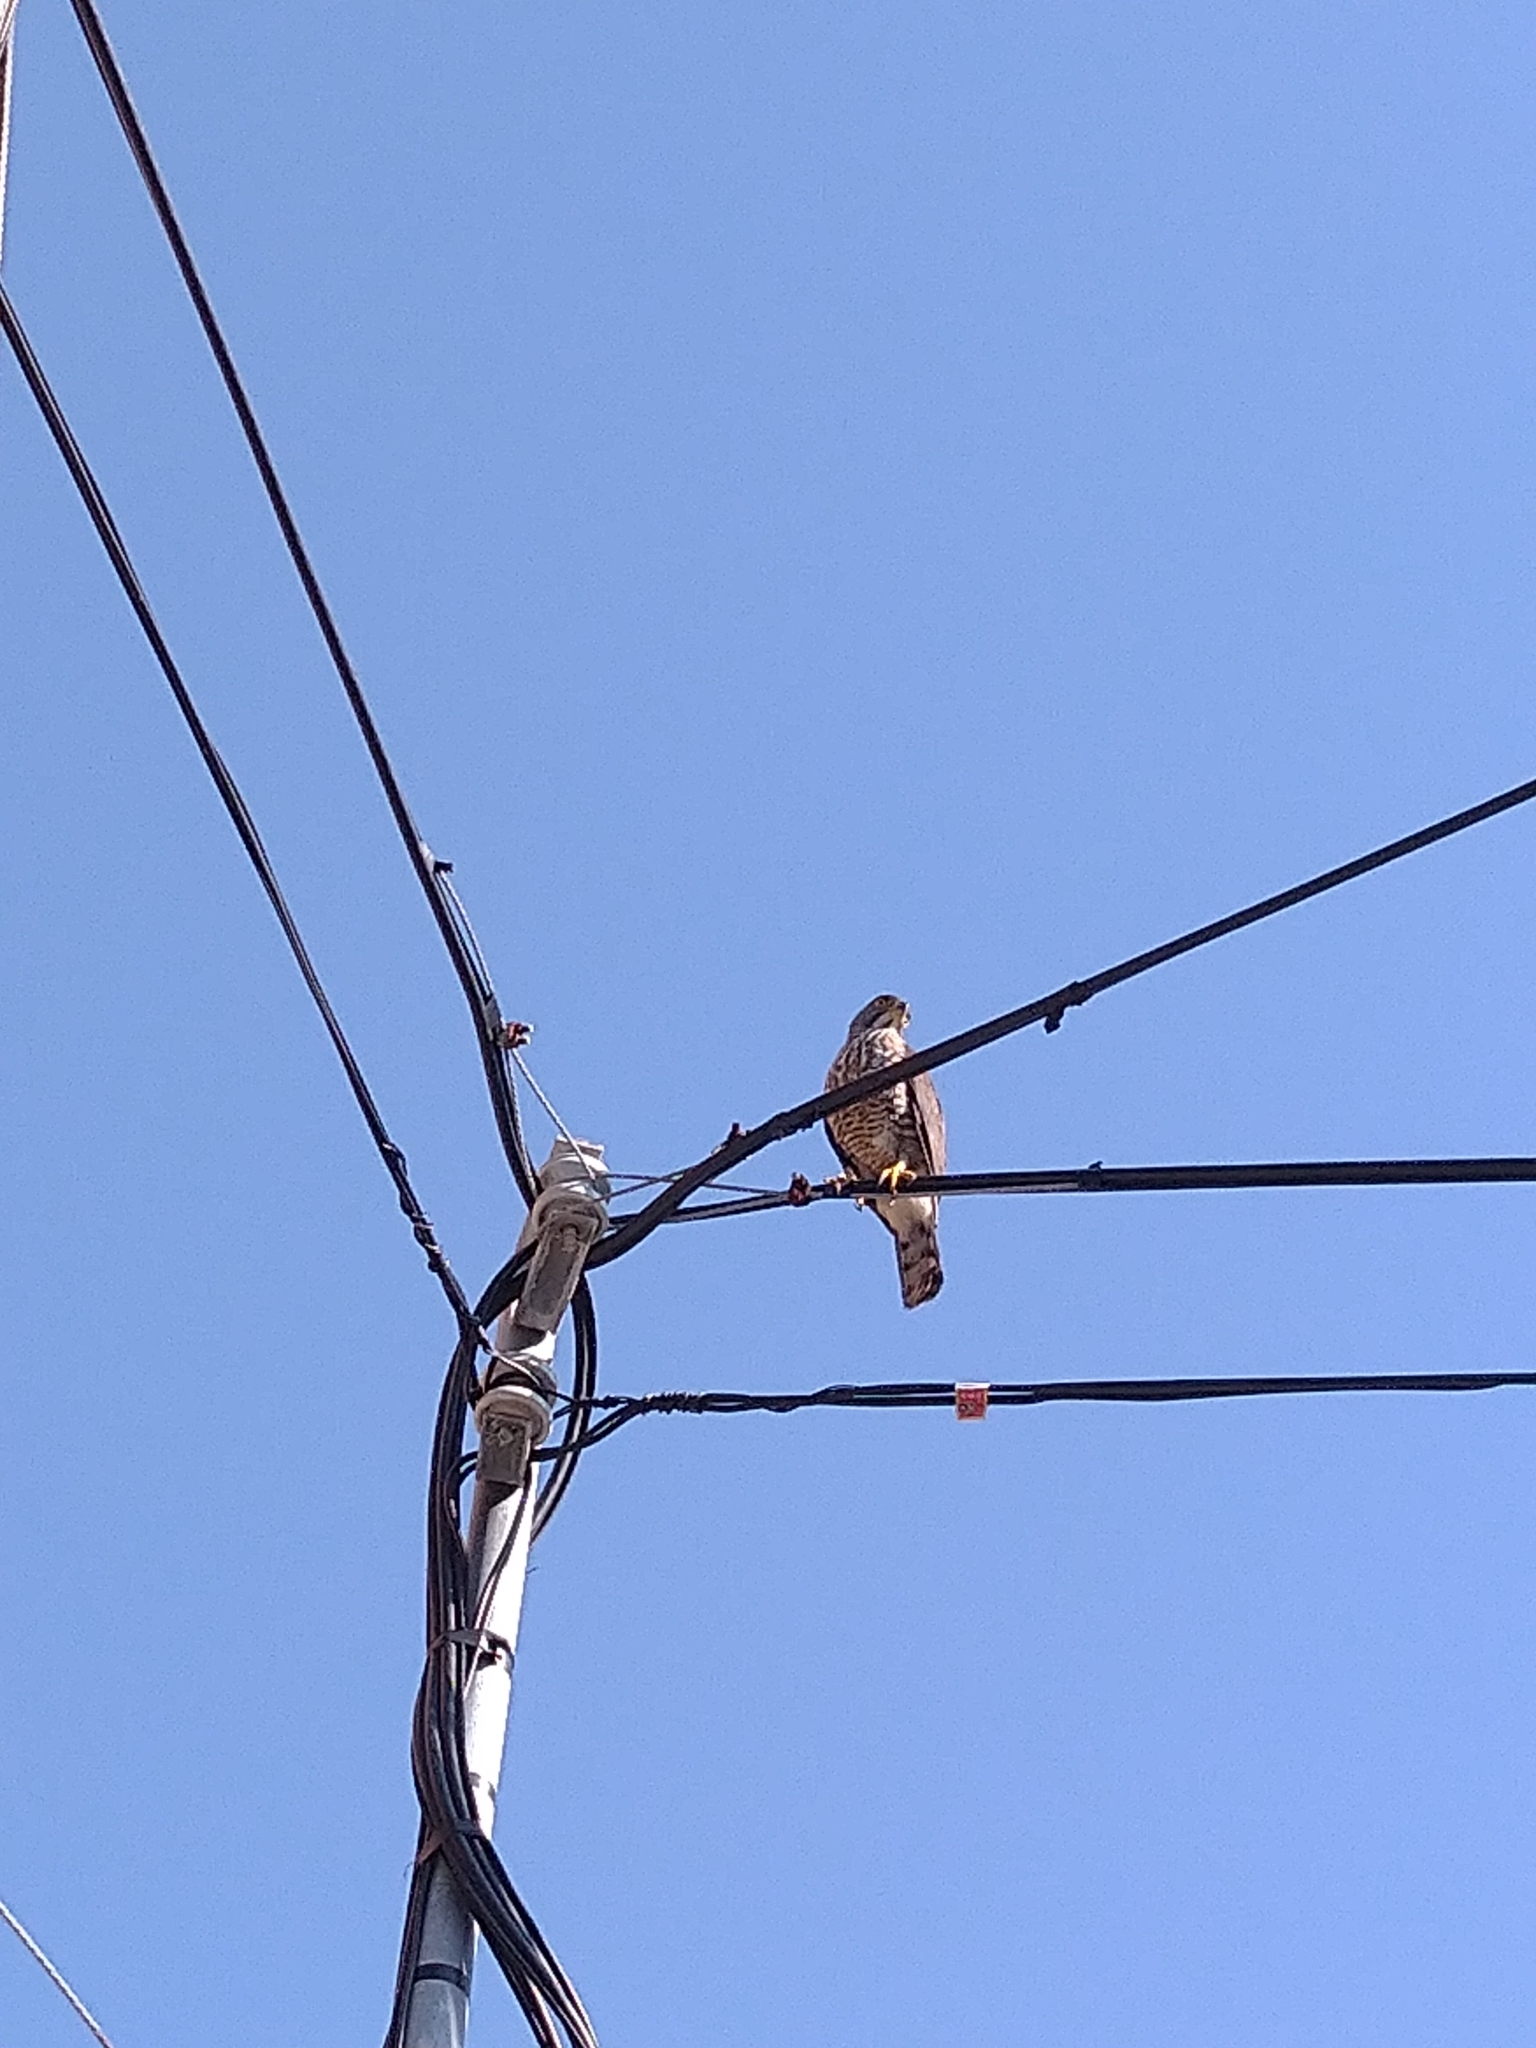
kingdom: Animalia
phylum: Chordata
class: Aves
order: Accipitriformes
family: Accipitridae
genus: Accipiter
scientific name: Accipiter trivirgatus
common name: Crested goshawk
